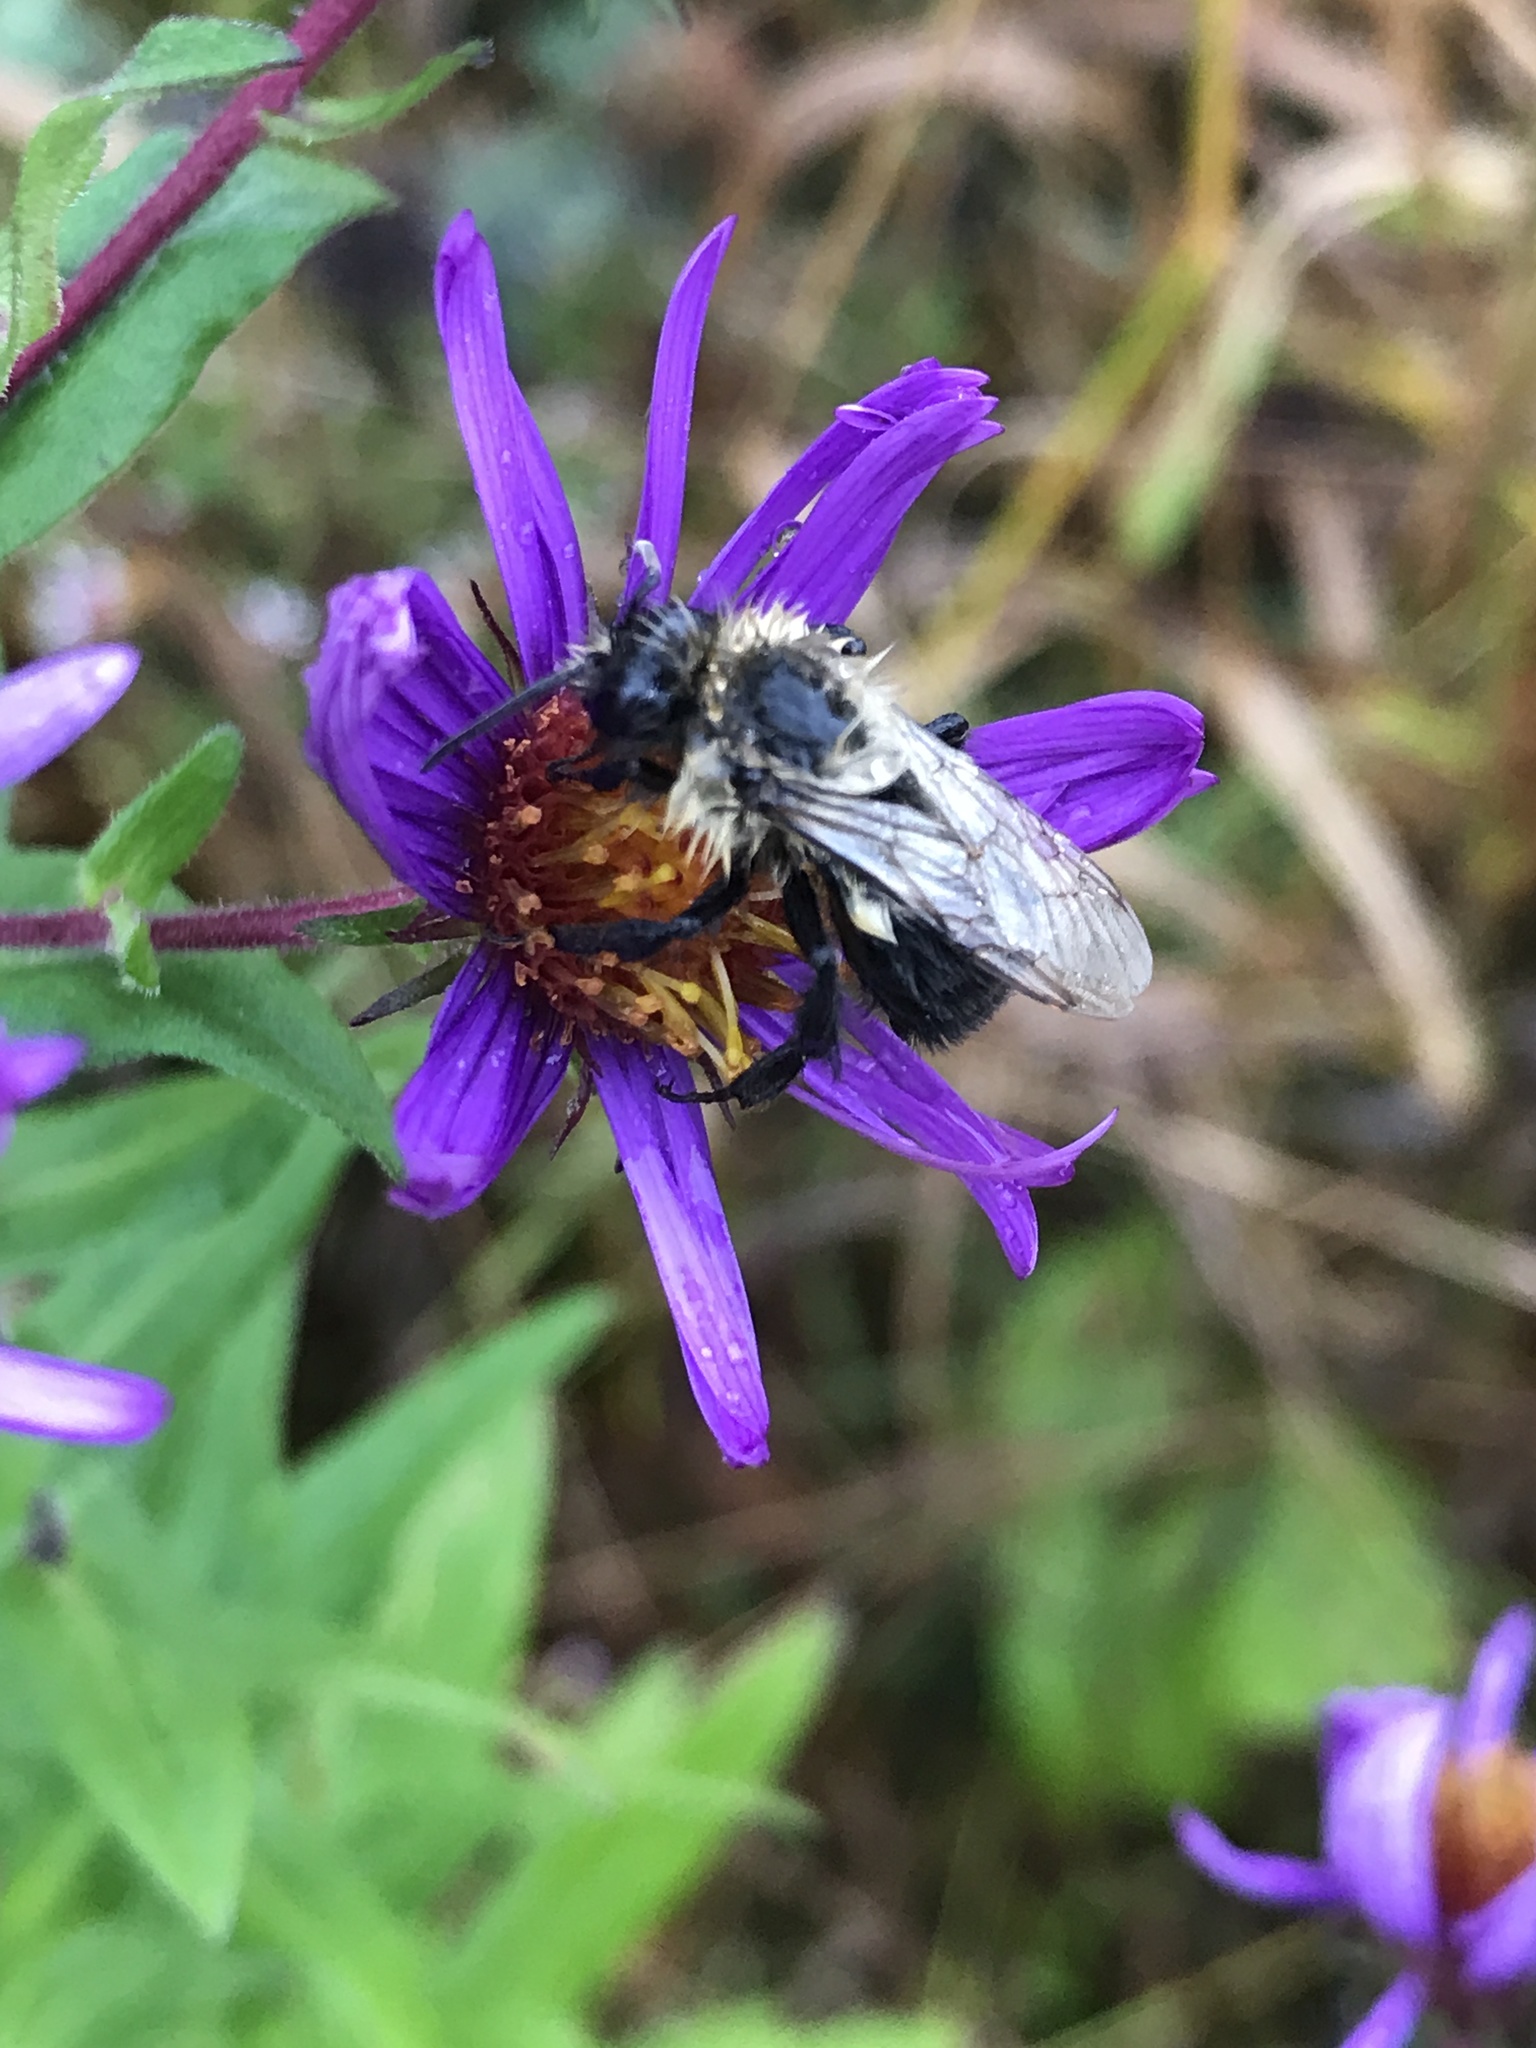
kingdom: Animalia
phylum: Arthropoda
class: Insecta
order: Hymenoptera
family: Apidae
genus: Bombus
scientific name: Bombus impatiens
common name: Common eastern bumble bee
